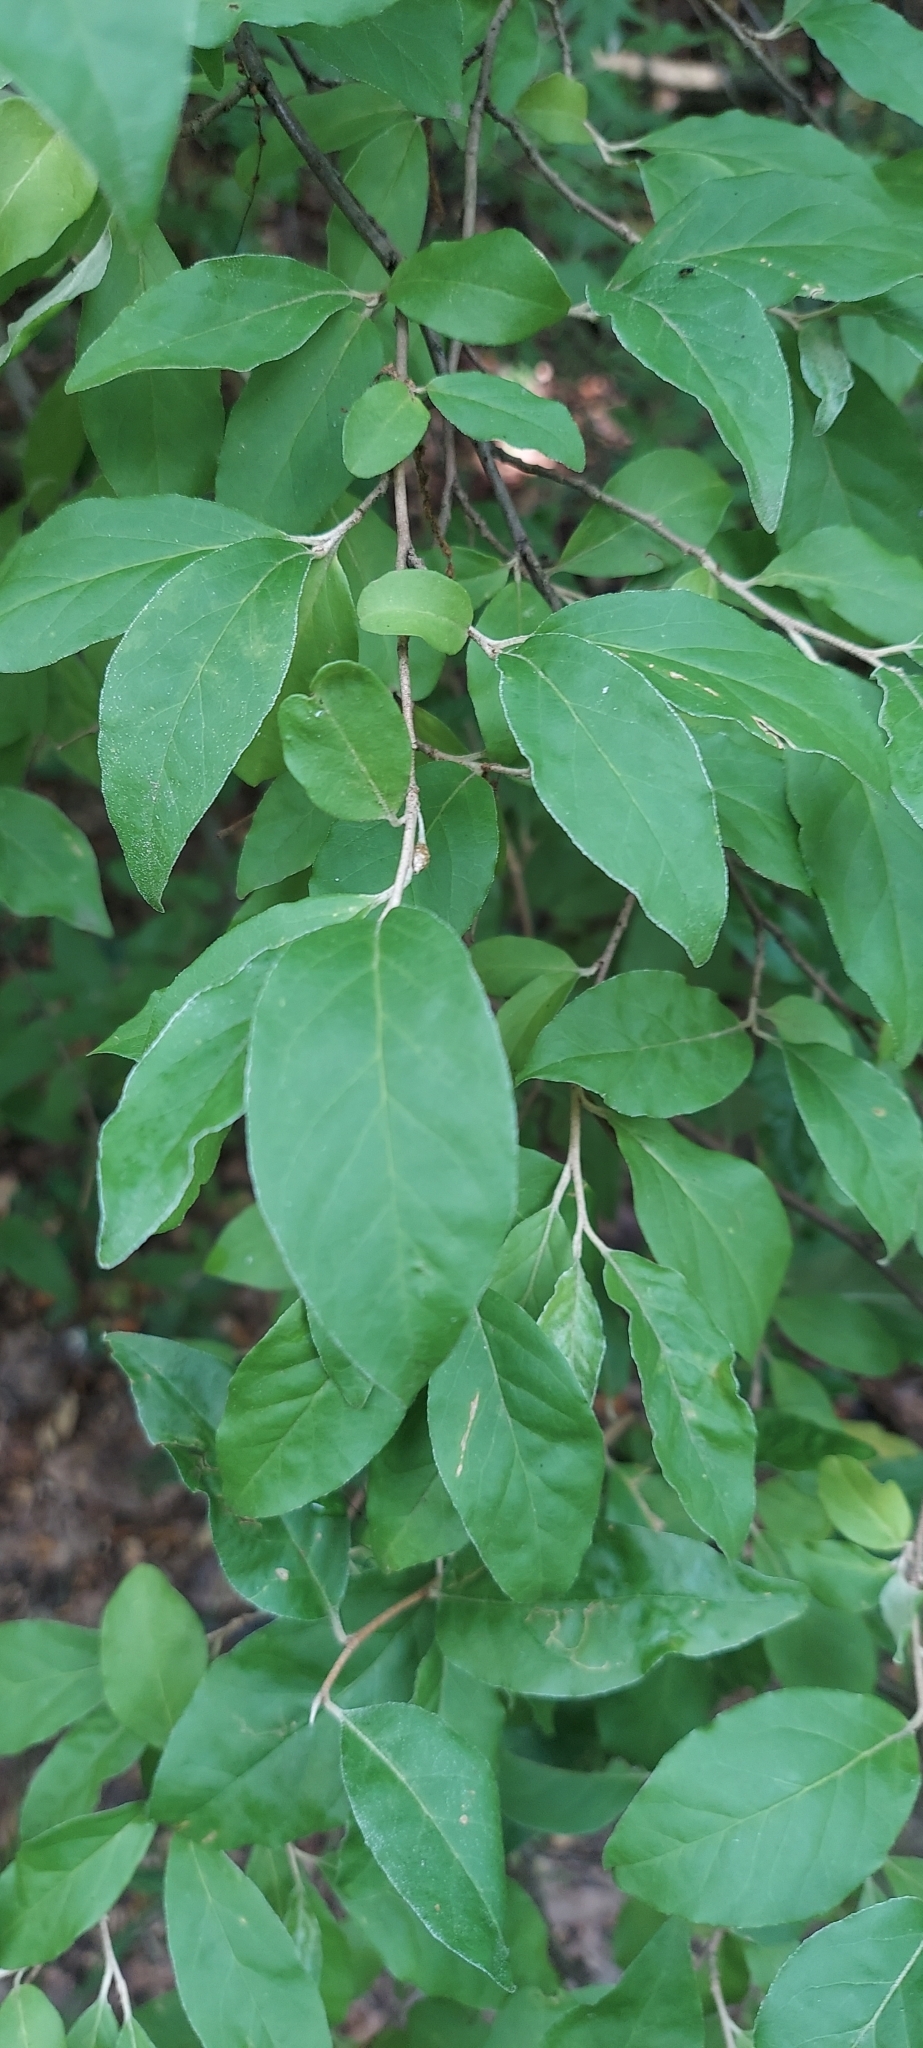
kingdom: Plantae
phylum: Tracheophyta
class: Magnoliopsida
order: Rosales
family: Elaeagnaceae
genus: Elaeagnus
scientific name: Elaeagnus umbellata
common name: Autumn olive
